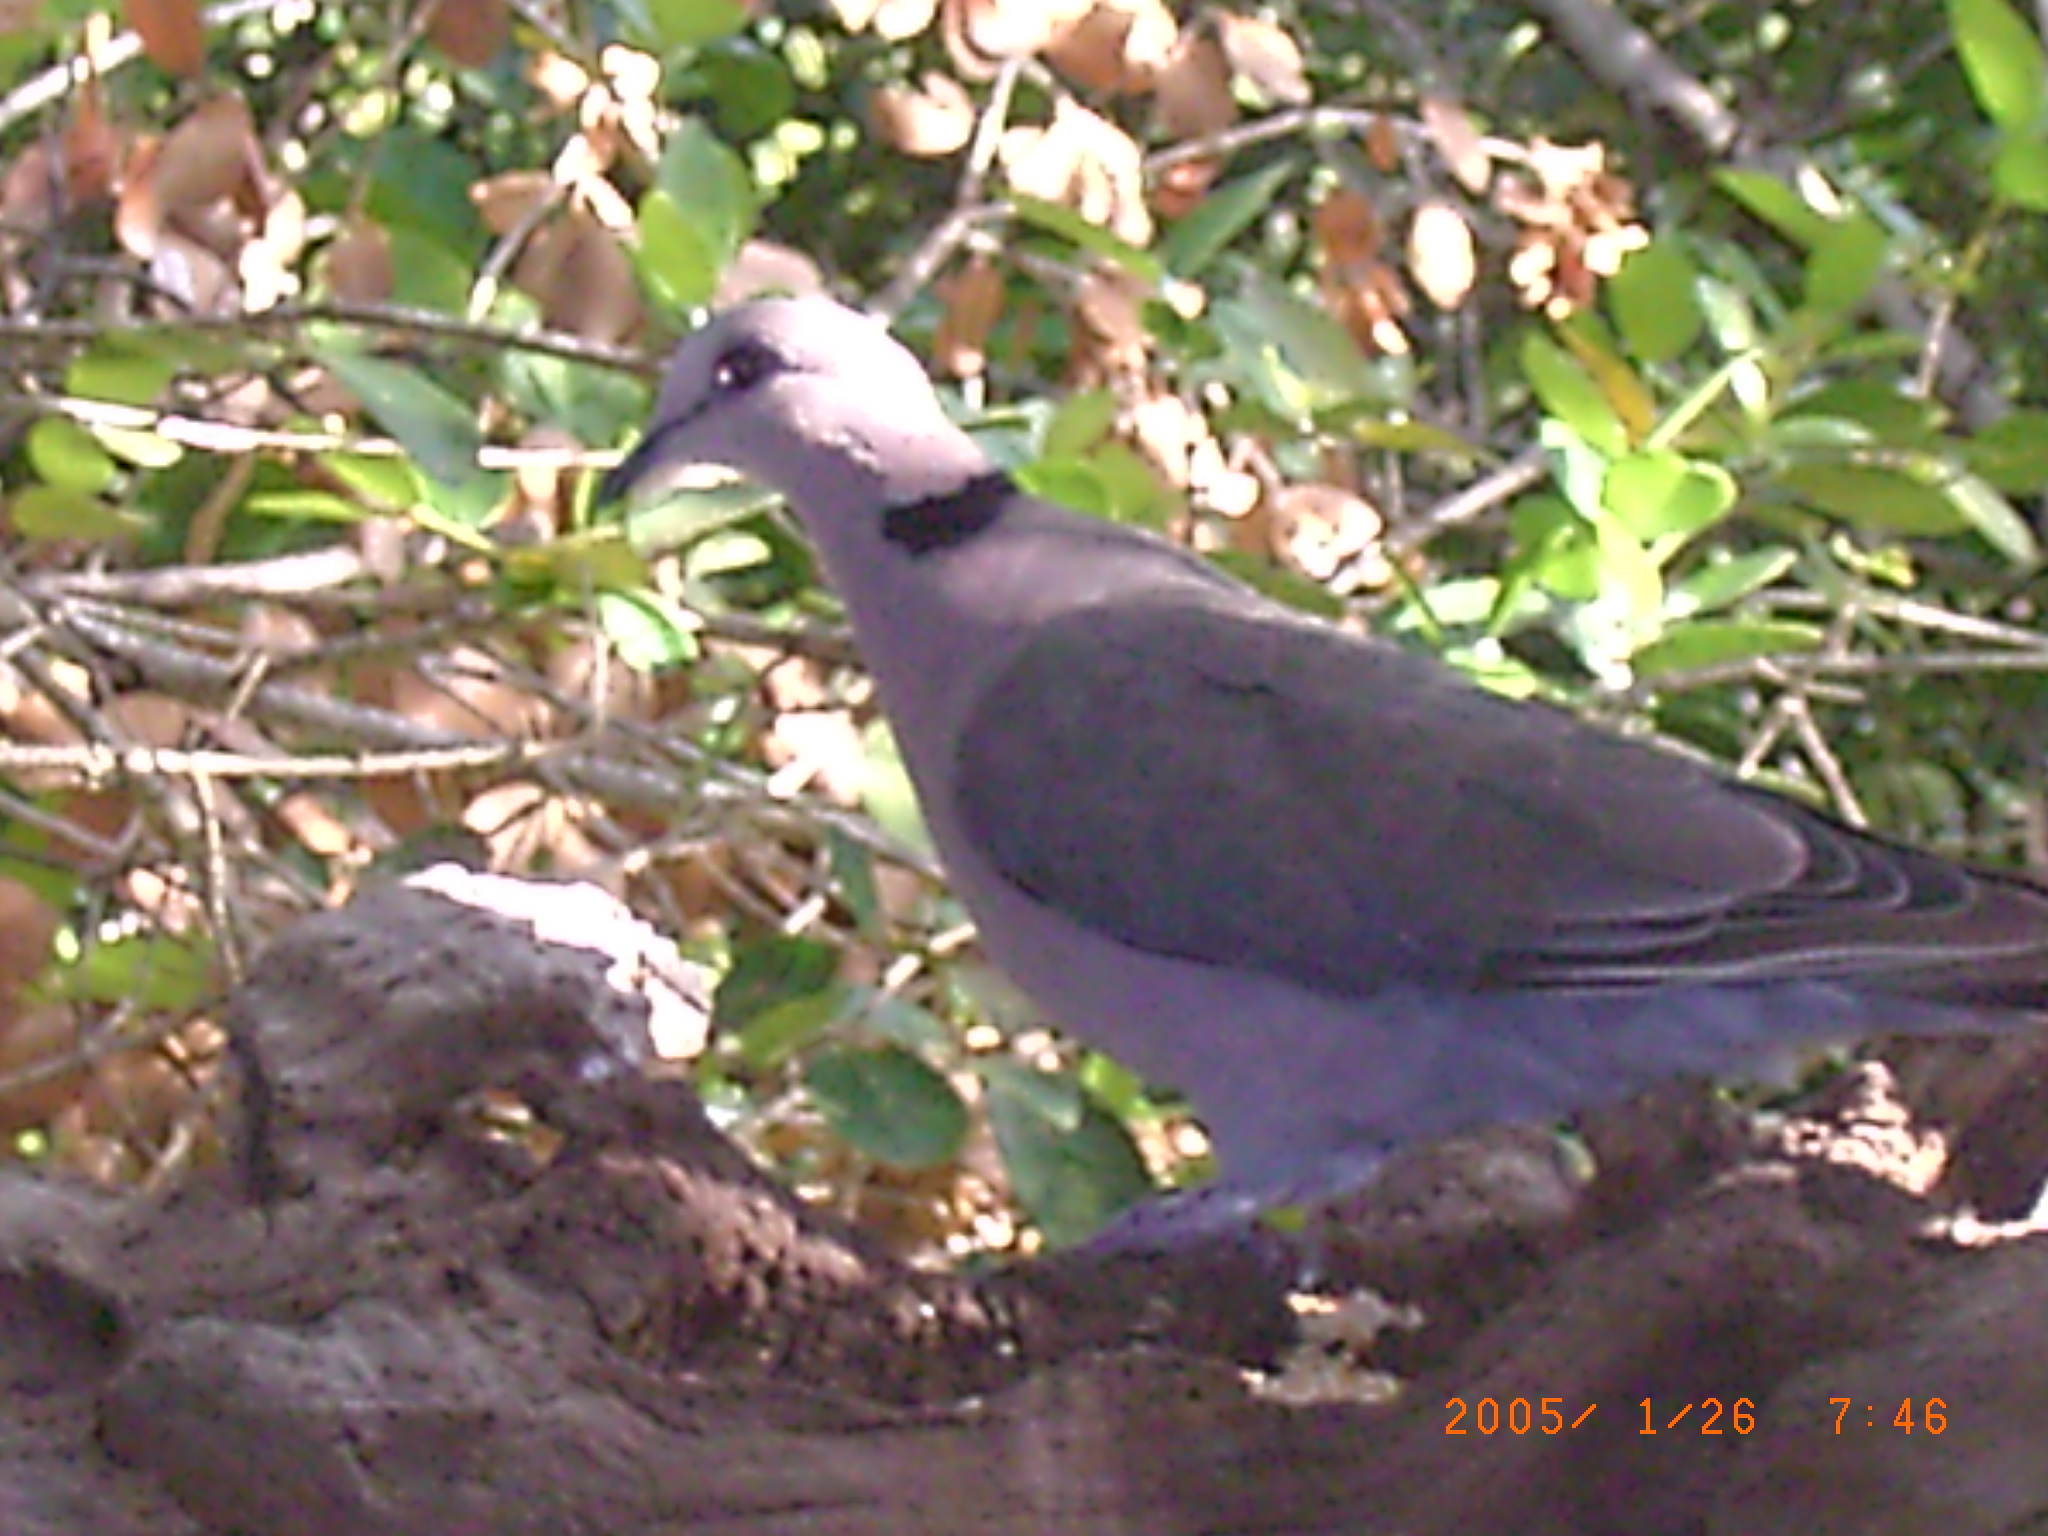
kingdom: Animalia
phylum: Chordata
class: Aves
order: Columbiformes
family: Columbidae
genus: Streptopelia
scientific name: Streptopelia semitorquata
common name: Red-eyed dove
